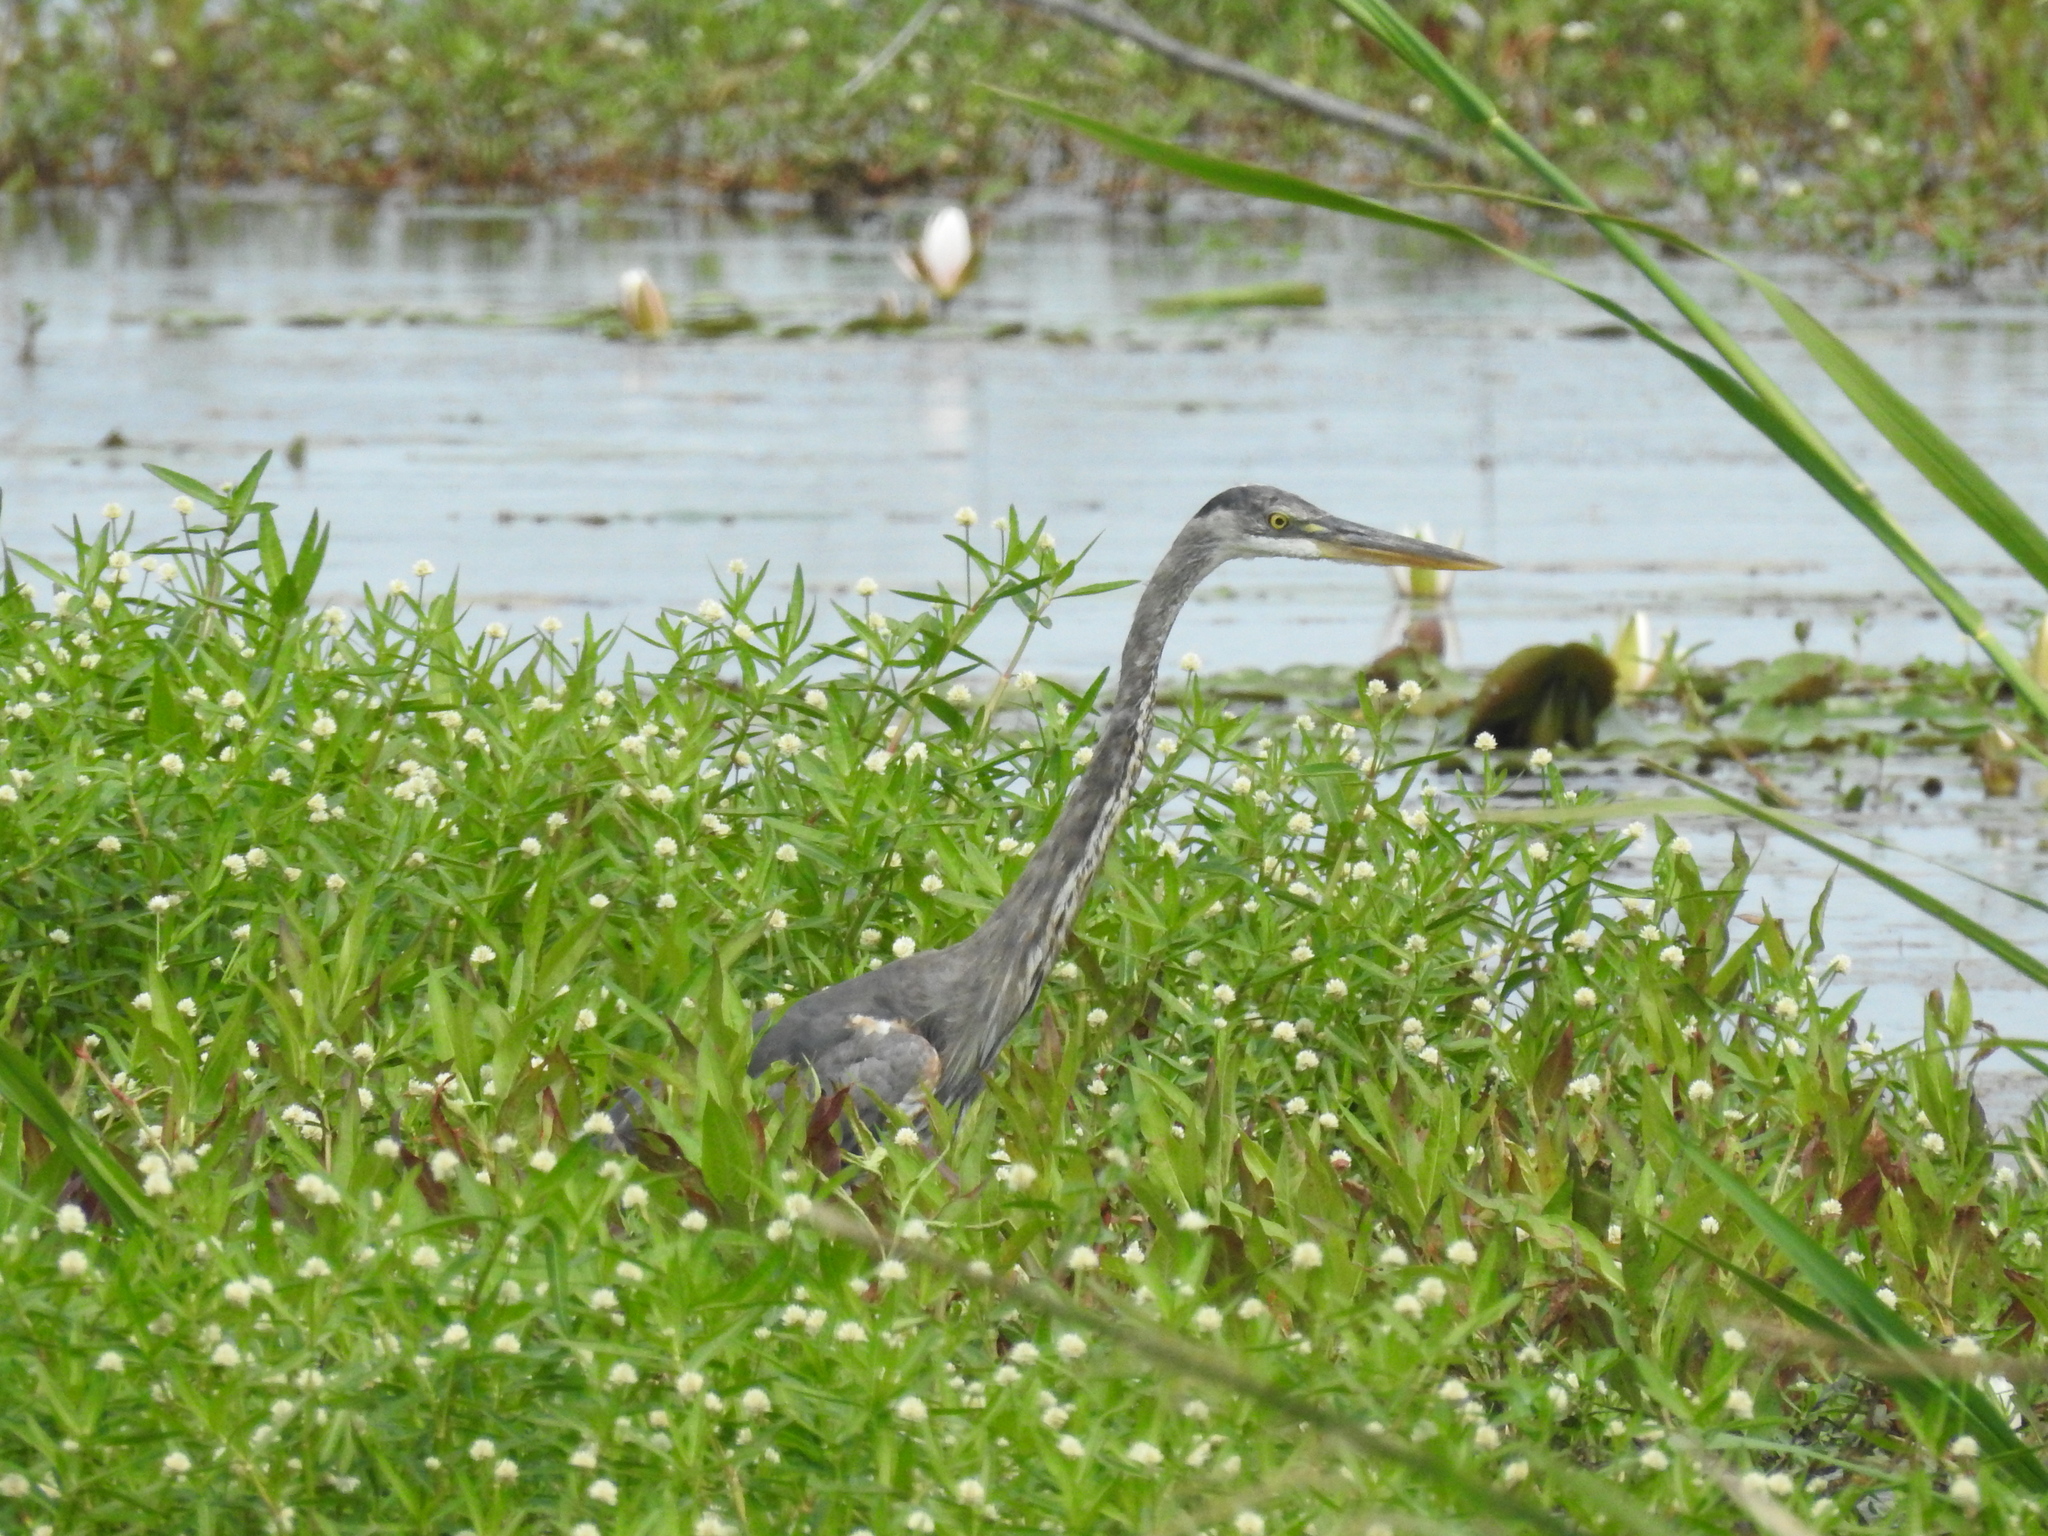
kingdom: Animalia
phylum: Chordata
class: Aves
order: Pelecaniformes
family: Ardeidae
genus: Ardea
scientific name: Ardea herodias
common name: Great blue heron
